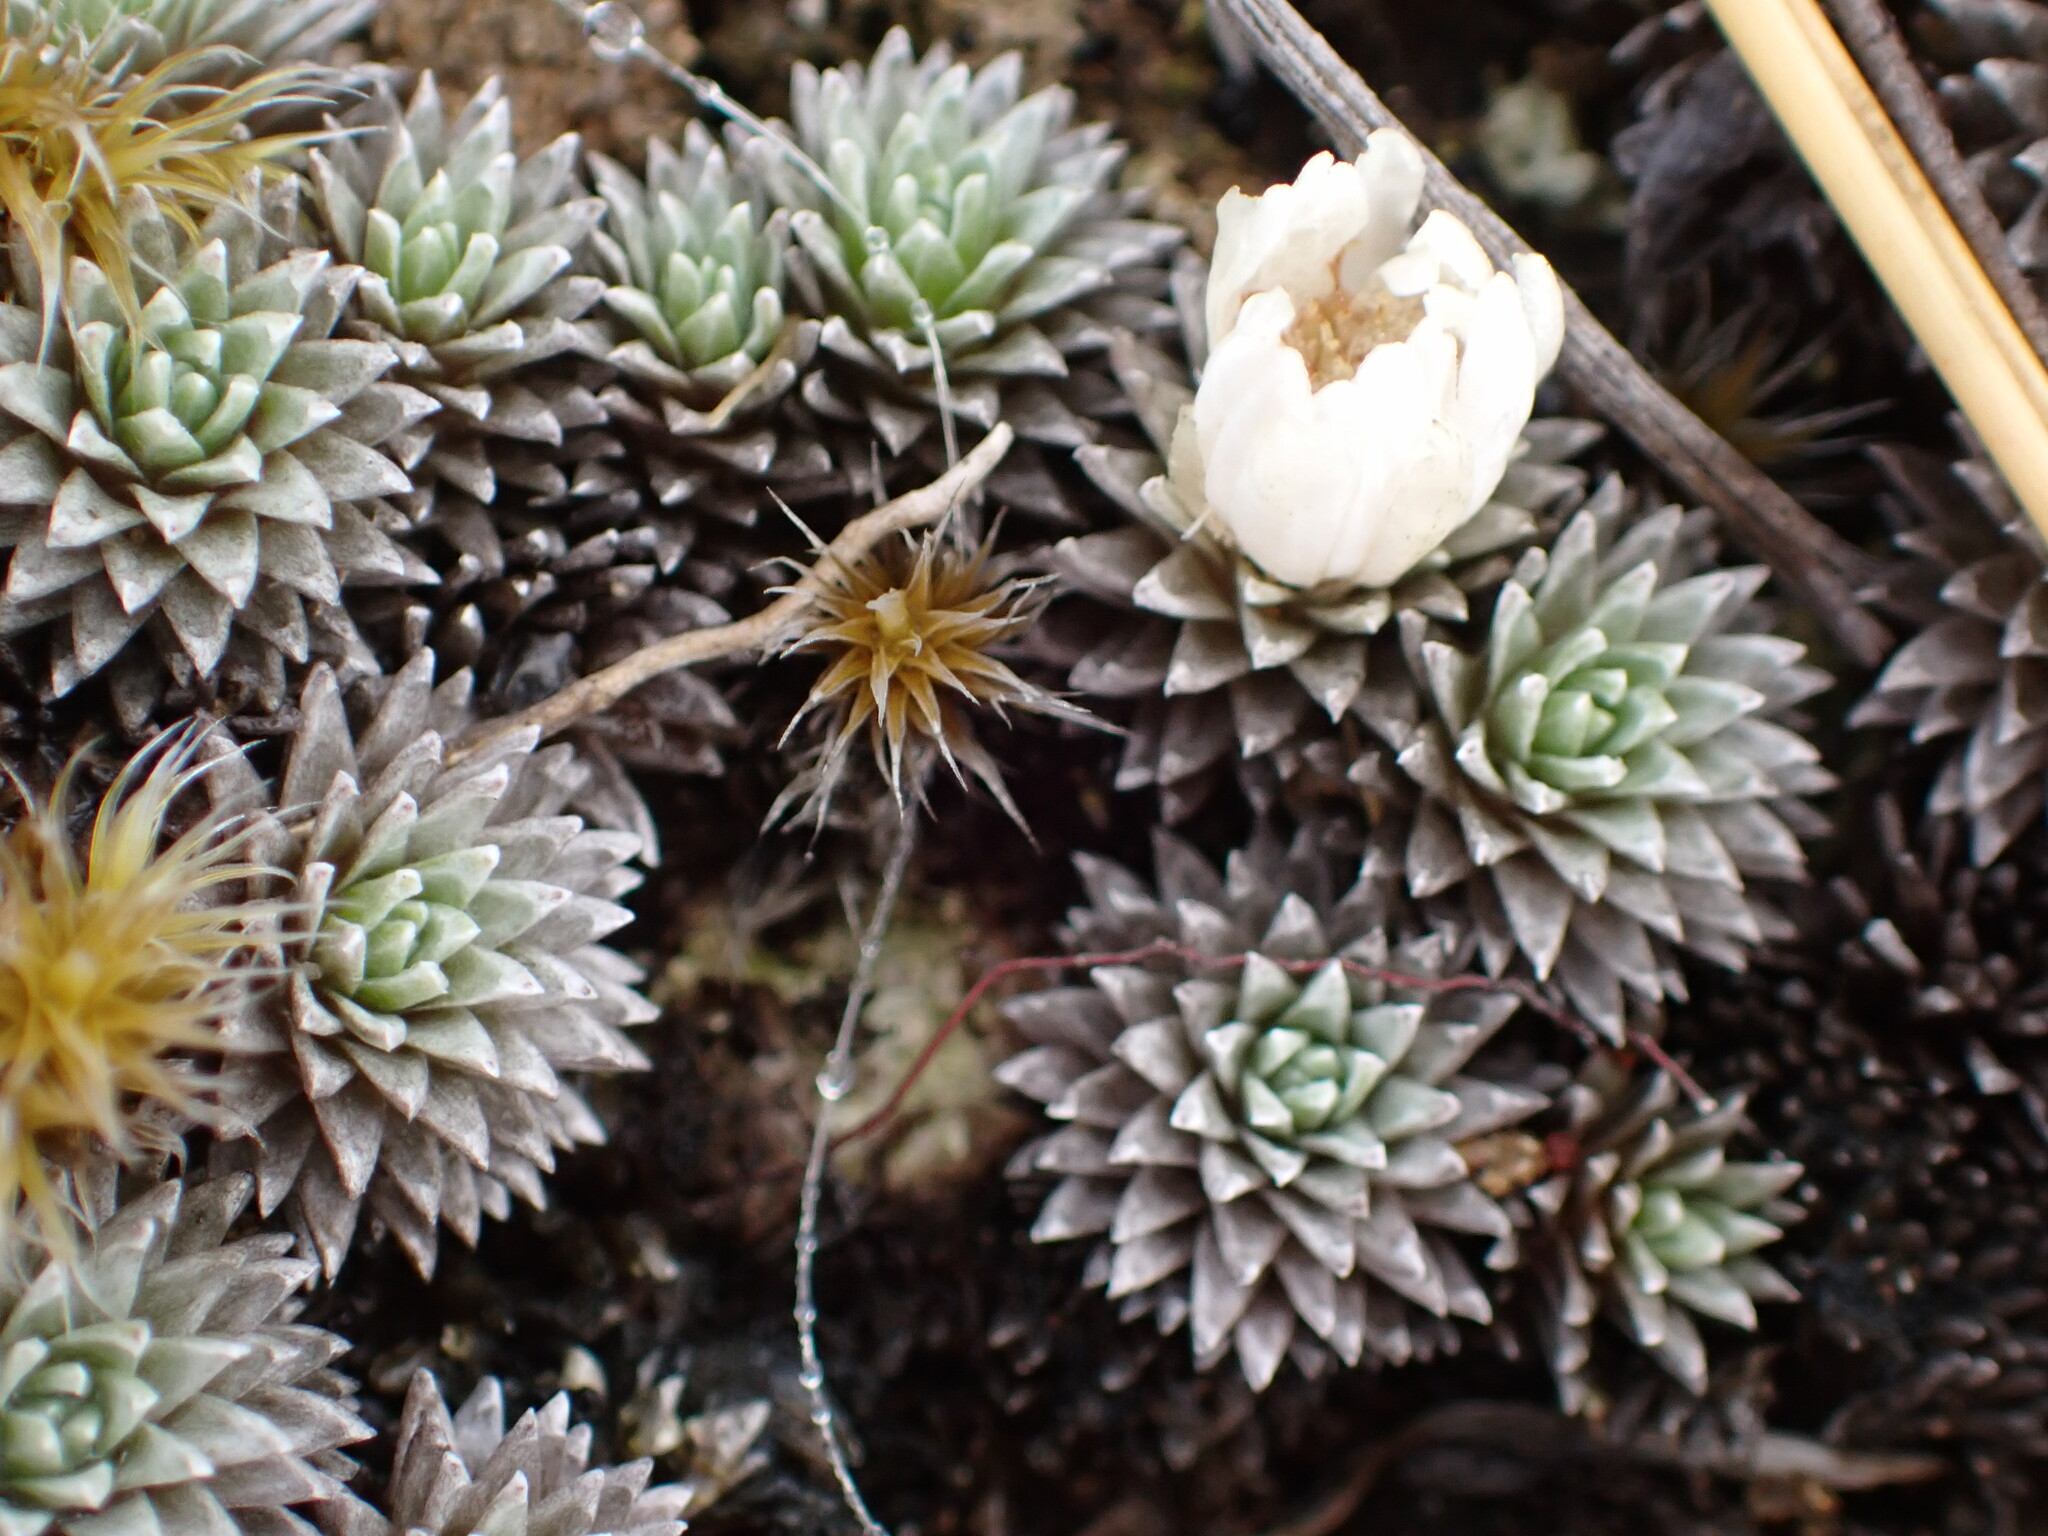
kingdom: Plantae
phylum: Tracheophyta
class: Magnoliopsida
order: Asterales
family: Asteraceae
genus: Raoulia
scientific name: Raoulia grandiflora
